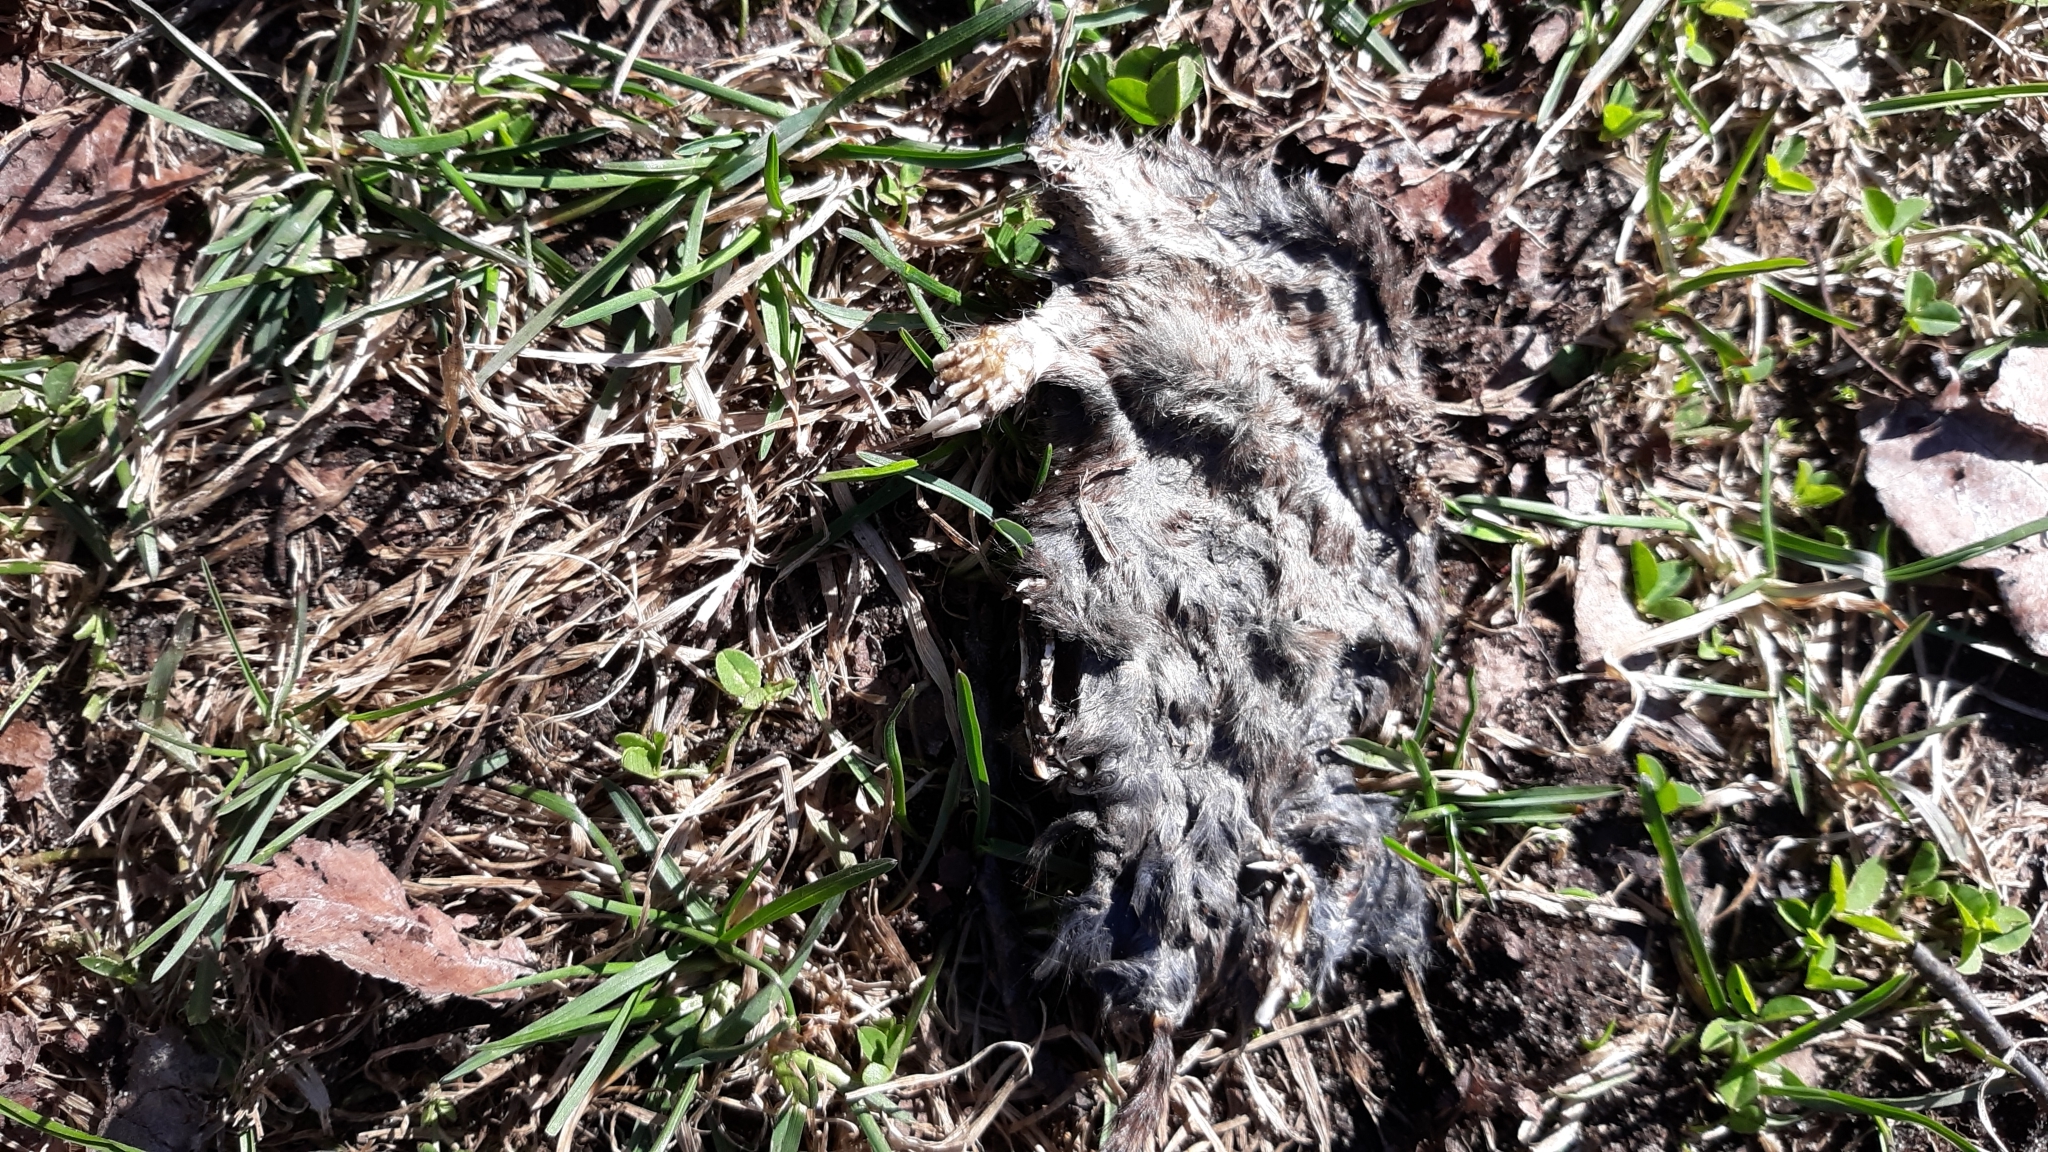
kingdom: Animalia
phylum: Chordata
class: Mammalia
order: Soricomorpha
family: Talpidae
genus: Scalopus
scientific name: Scalopus aquaticus
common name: Eastern mole
